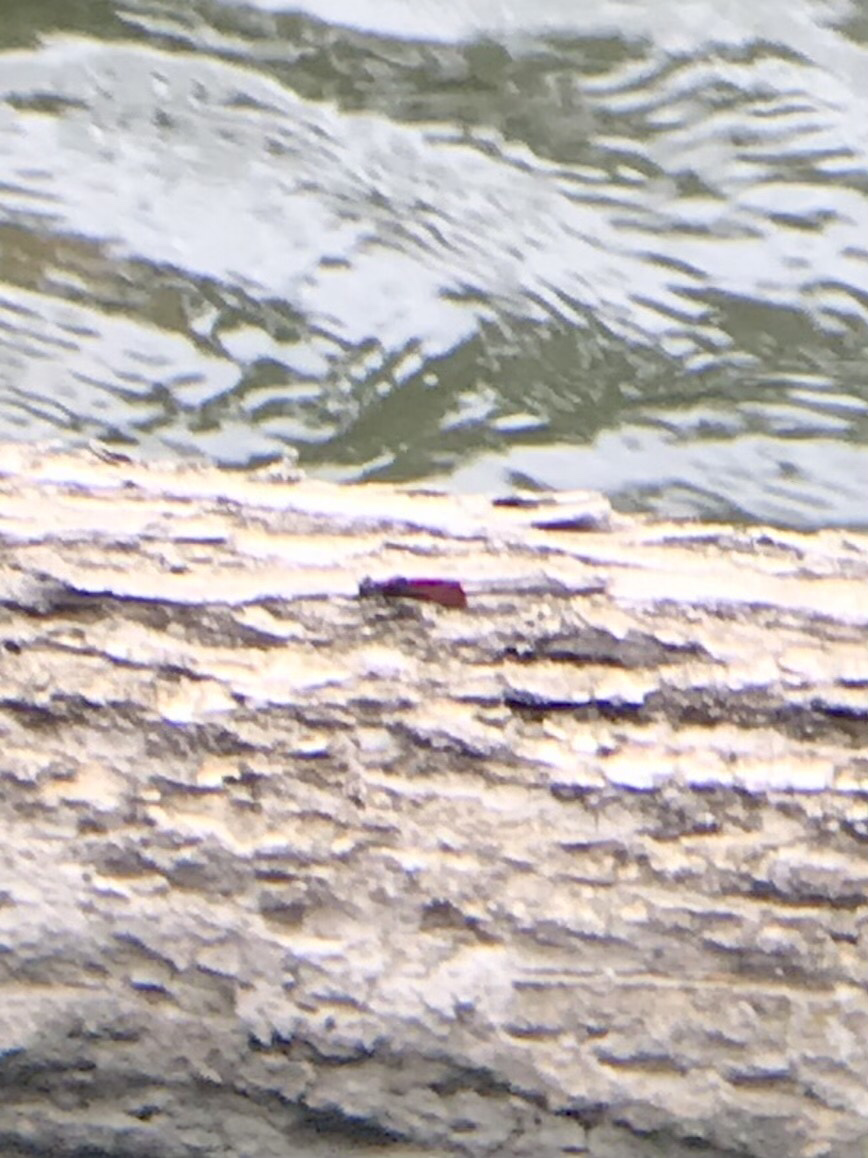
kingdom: Animalia
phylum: Arthropoda
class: Insecta
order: Odonata
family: Calopterygidae
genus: Hetaerina
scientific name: Hetaerina americana
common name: American rubyspot
